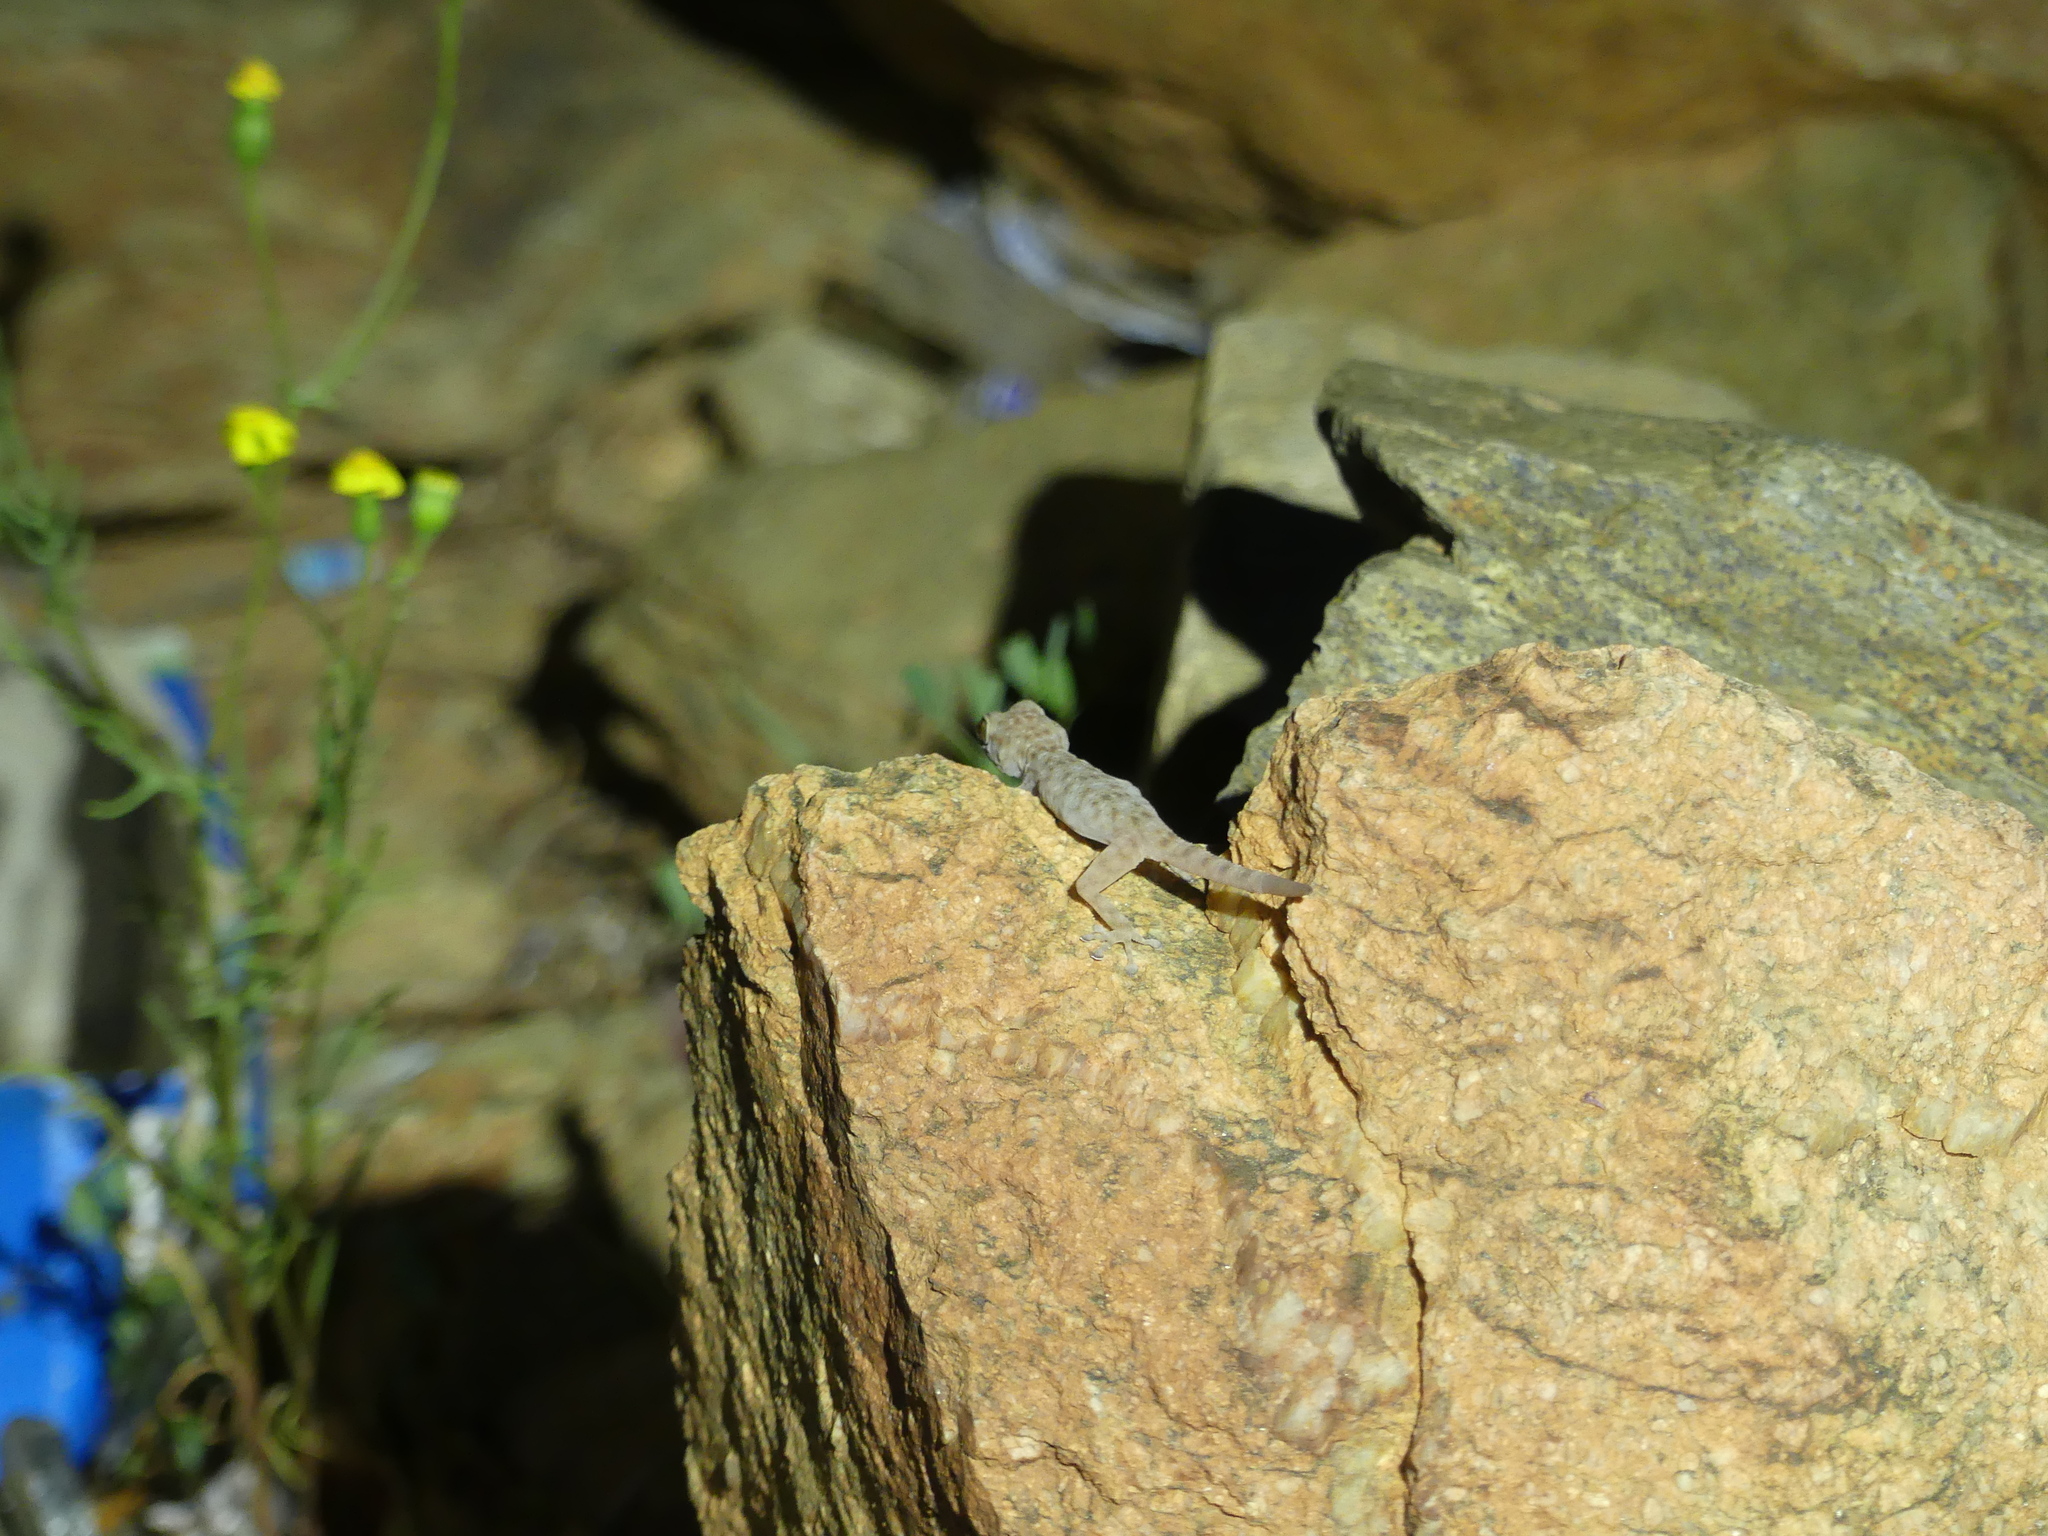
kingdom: Animalia
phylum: Chordata
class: Squamata
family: Phyllodactylidae
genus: Ptyodactylus
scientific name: Ptyodactylus oudrii
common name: Algerian fan-fingered gecko
